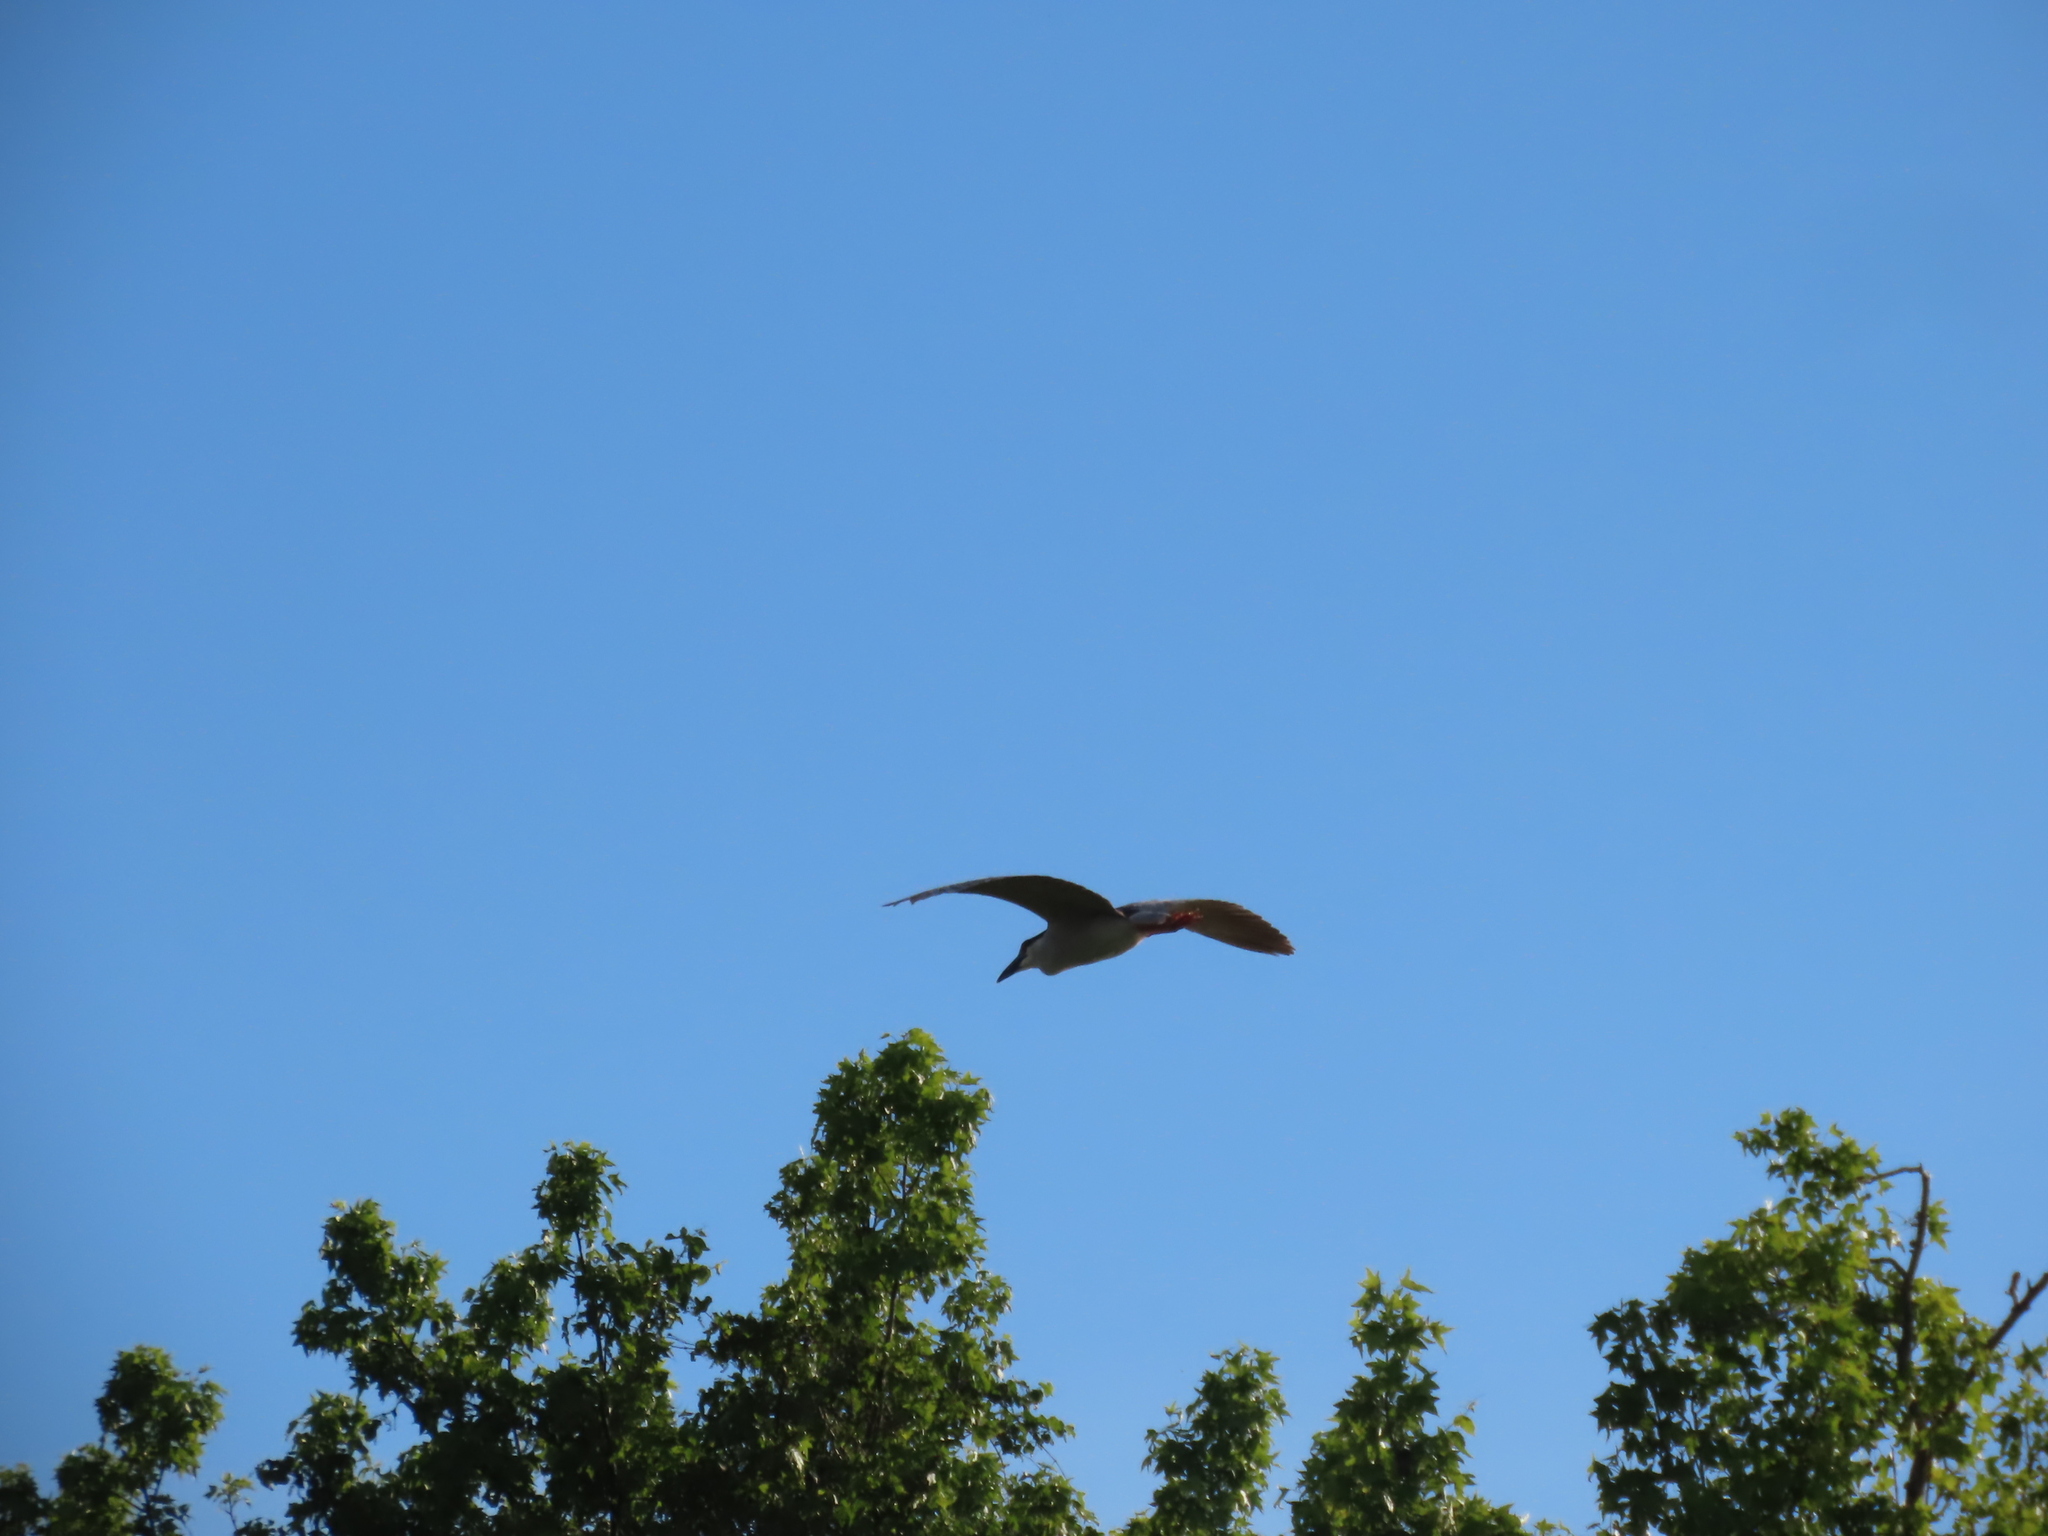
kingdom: Animalia
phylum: Chordata
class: Aves
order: Pelecaniformes
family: Ardeidae
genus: Nycticorax
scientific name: Nycticorax nycticorax
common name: Black-crowned night heron
